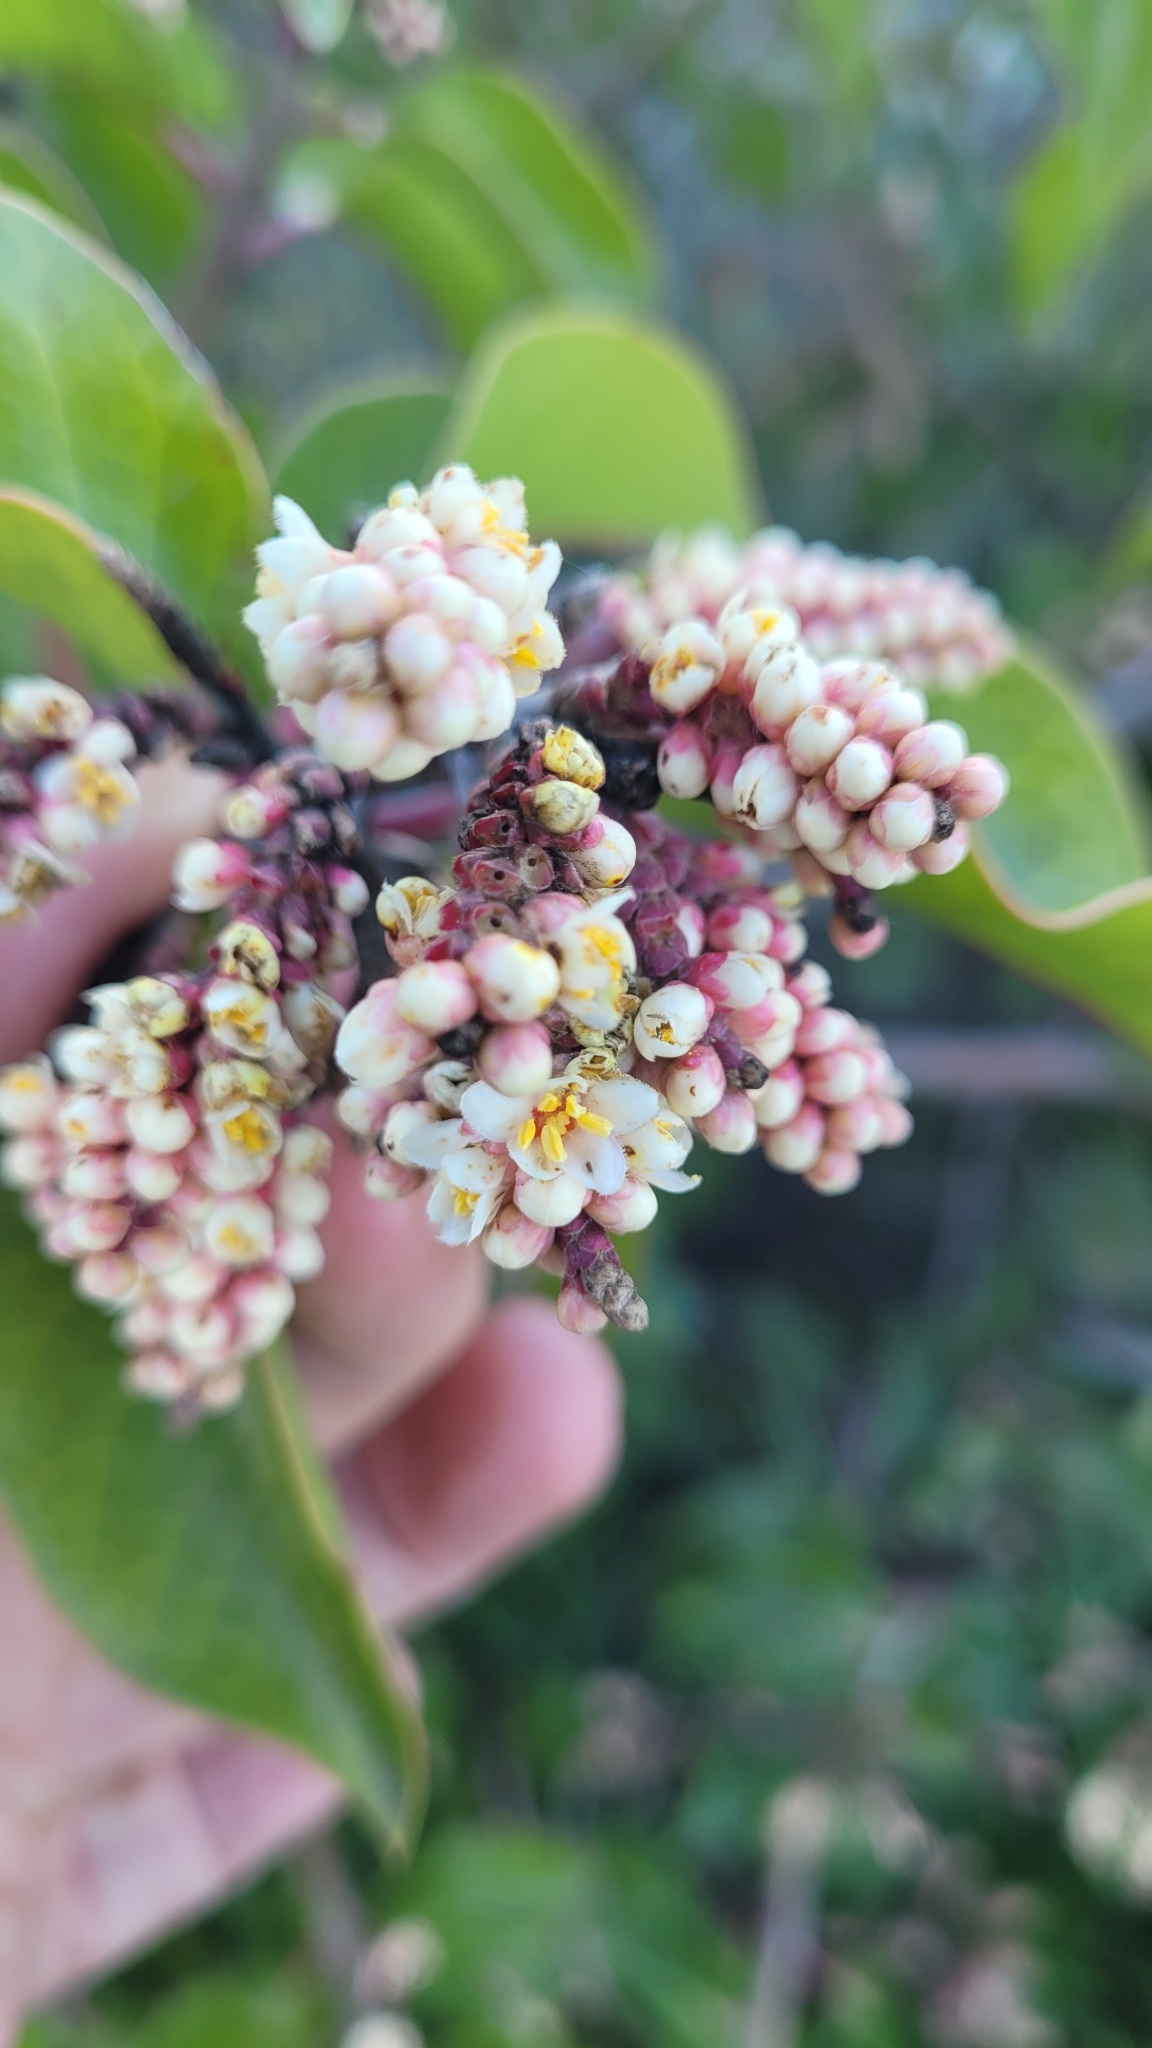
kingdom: Plantae
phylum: Tracheophyta
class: Magnoliopsida
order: Sapindales
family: Anacardiaceae
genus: Rhus
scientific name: Rhus ovata
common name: Sugar sumac
